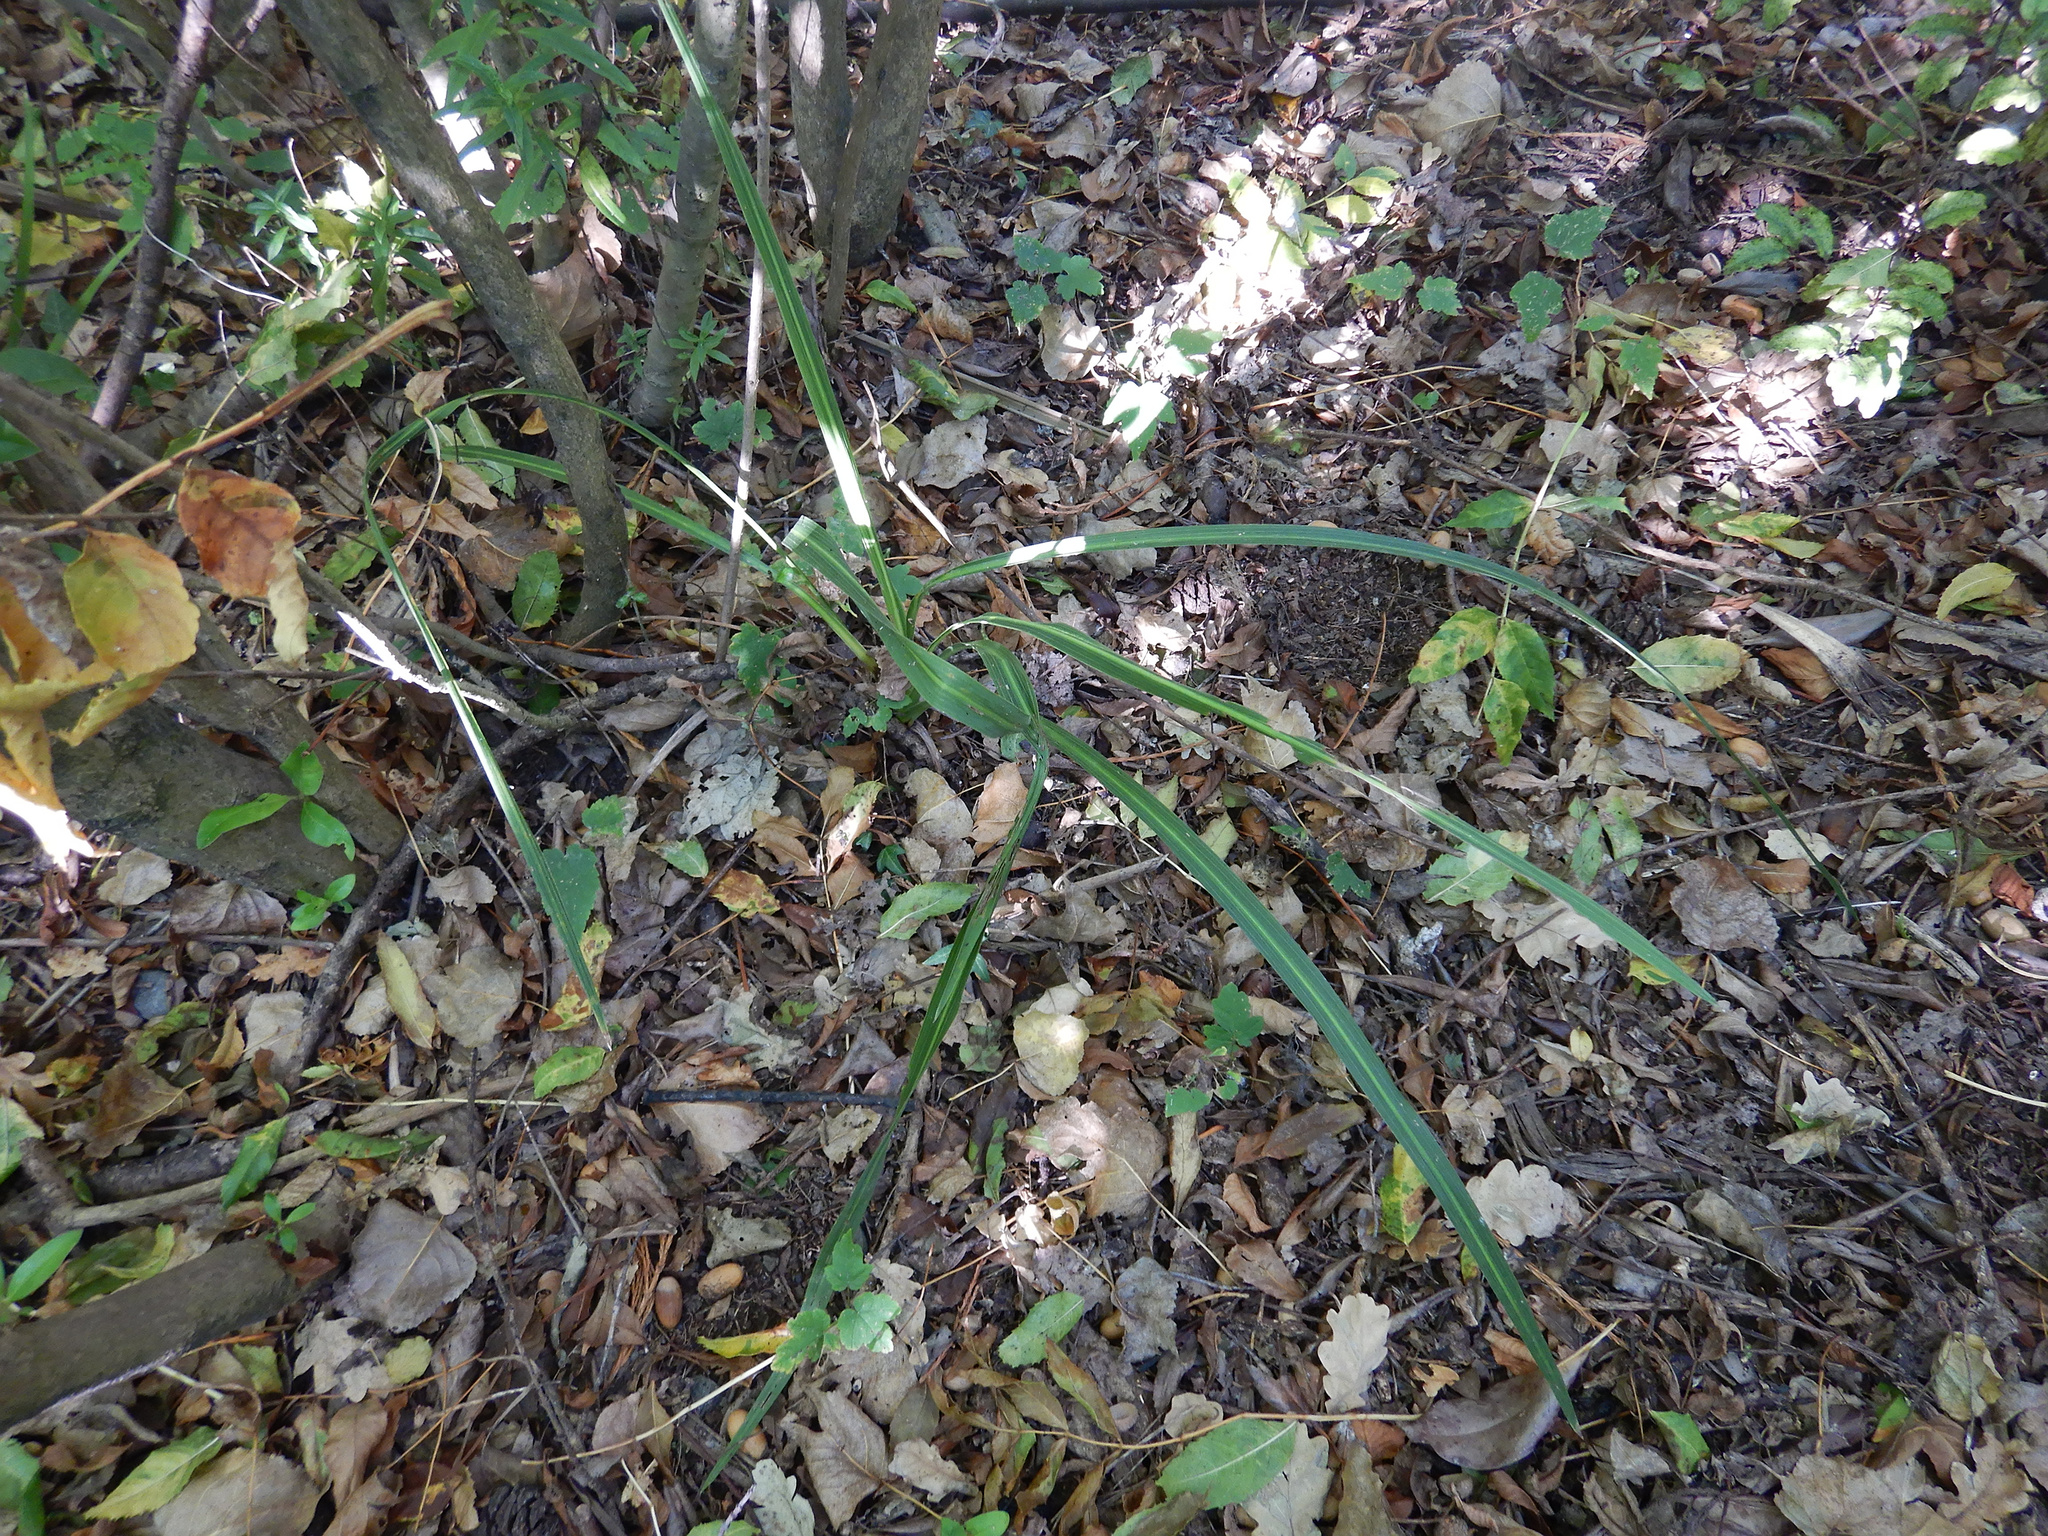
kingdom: Plantae
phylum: Tracheophyta
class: Liliopsida
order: Asparagales
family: Asparagaceae
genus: Cordyline
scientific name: Cordyline australis
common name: Cabbage-palm
